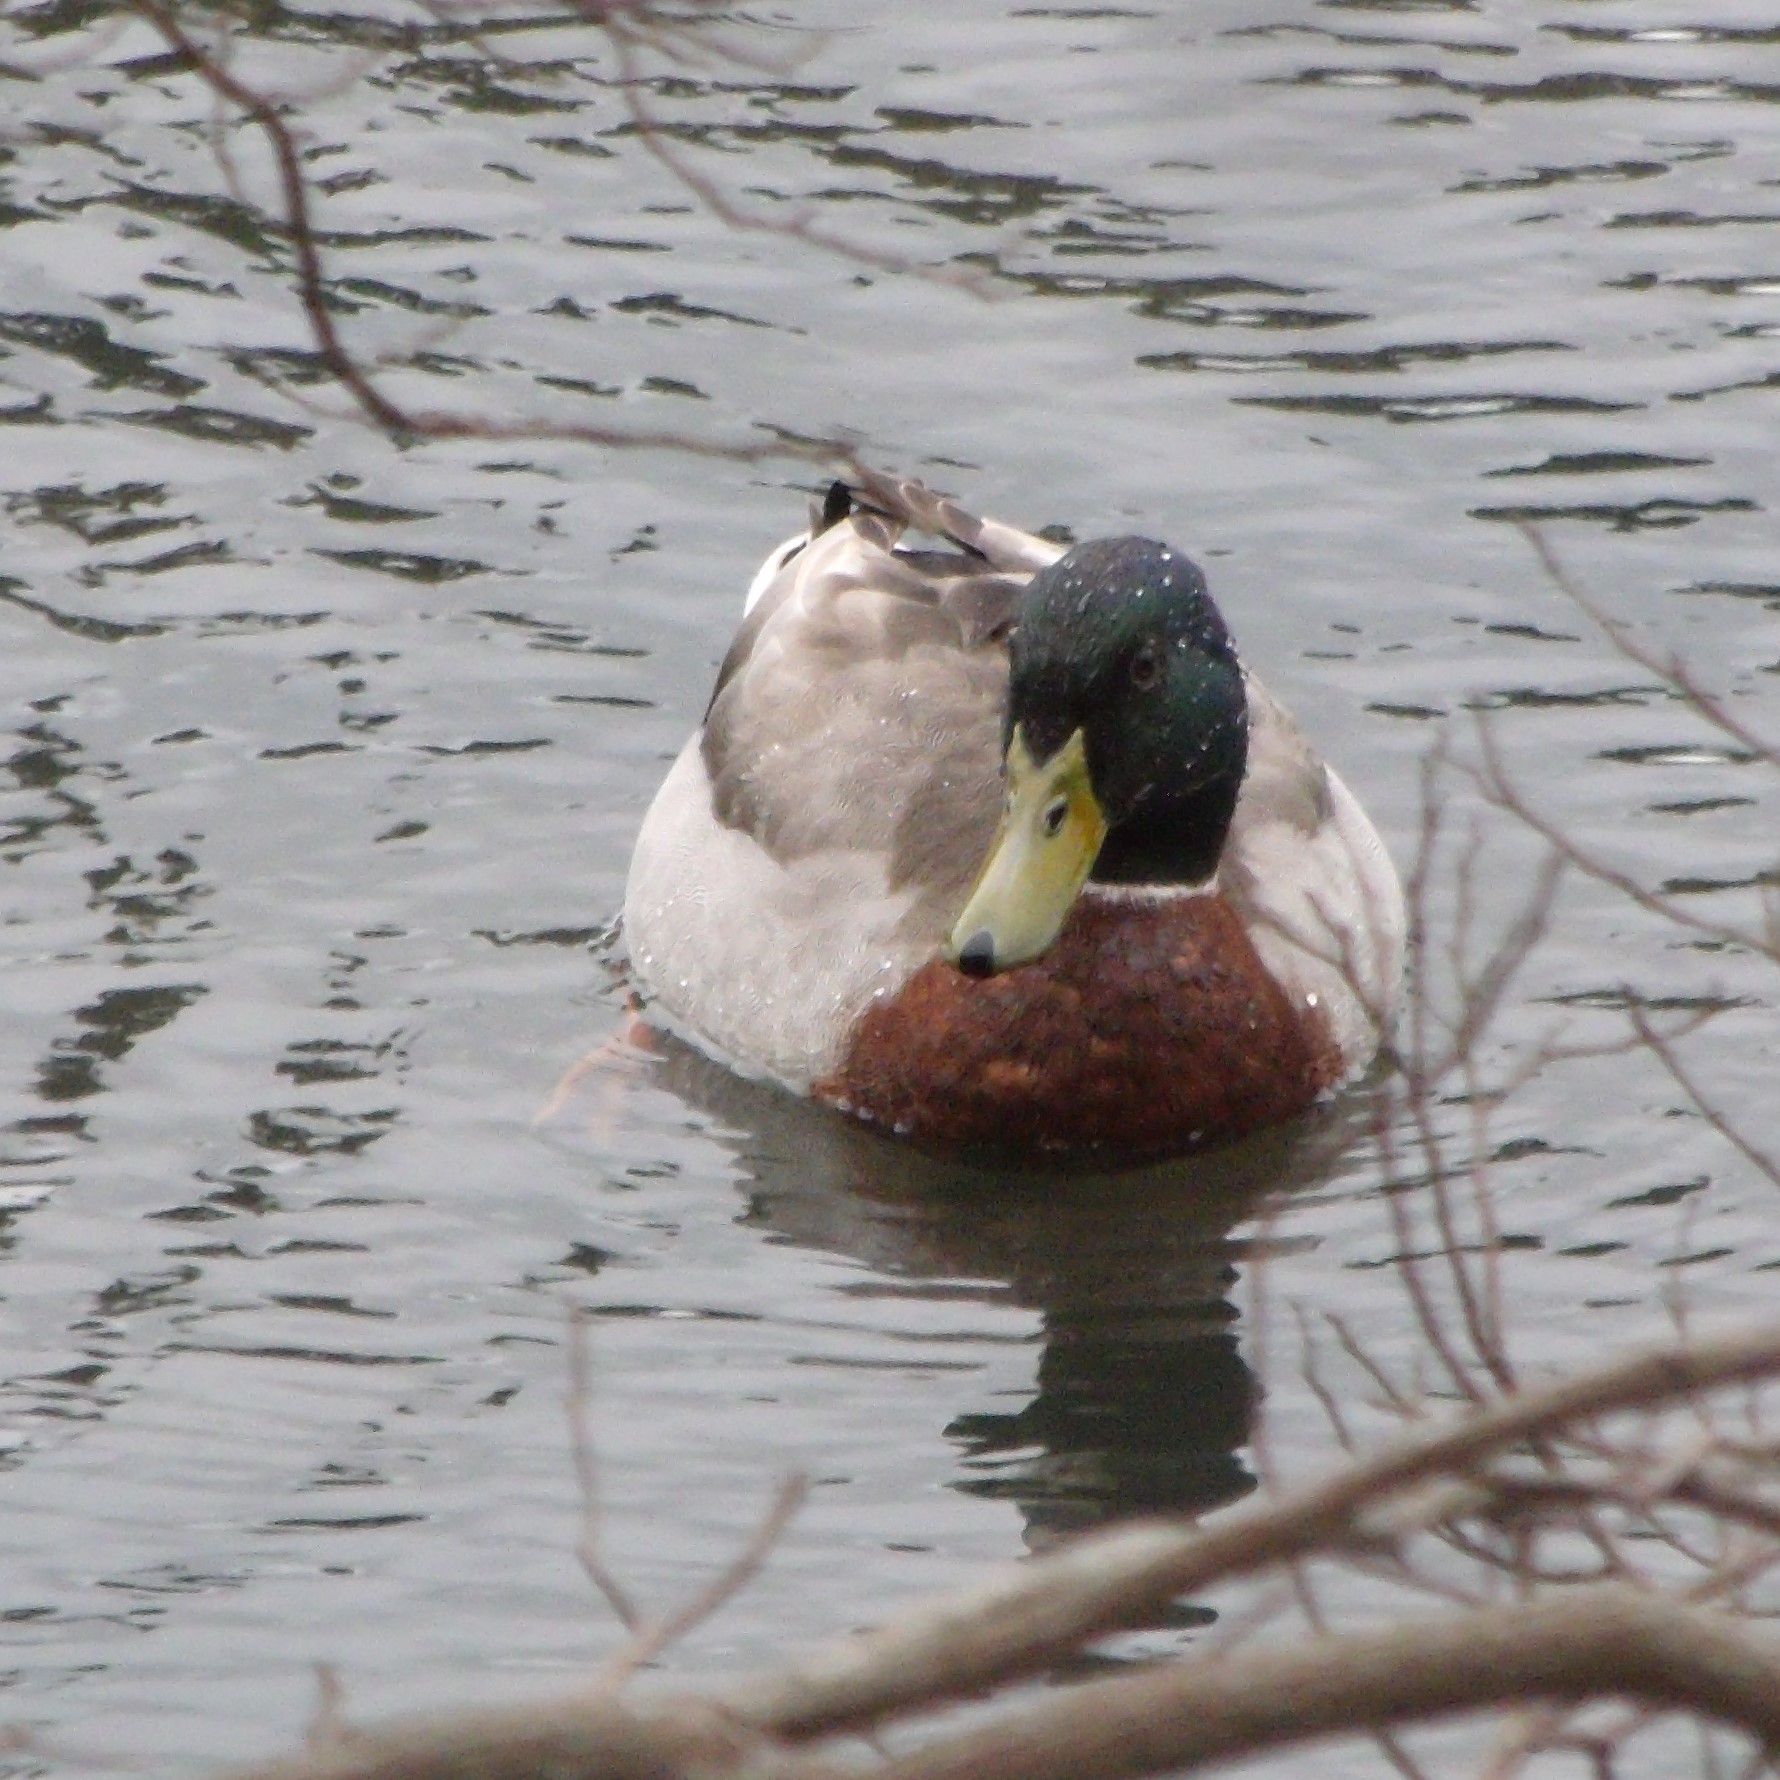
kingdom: Animalia
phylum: Chordata
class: Aves
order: Anseriformes
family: Anatidae
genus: Anas
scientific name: Anas platyrhynchos
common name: Mallard
